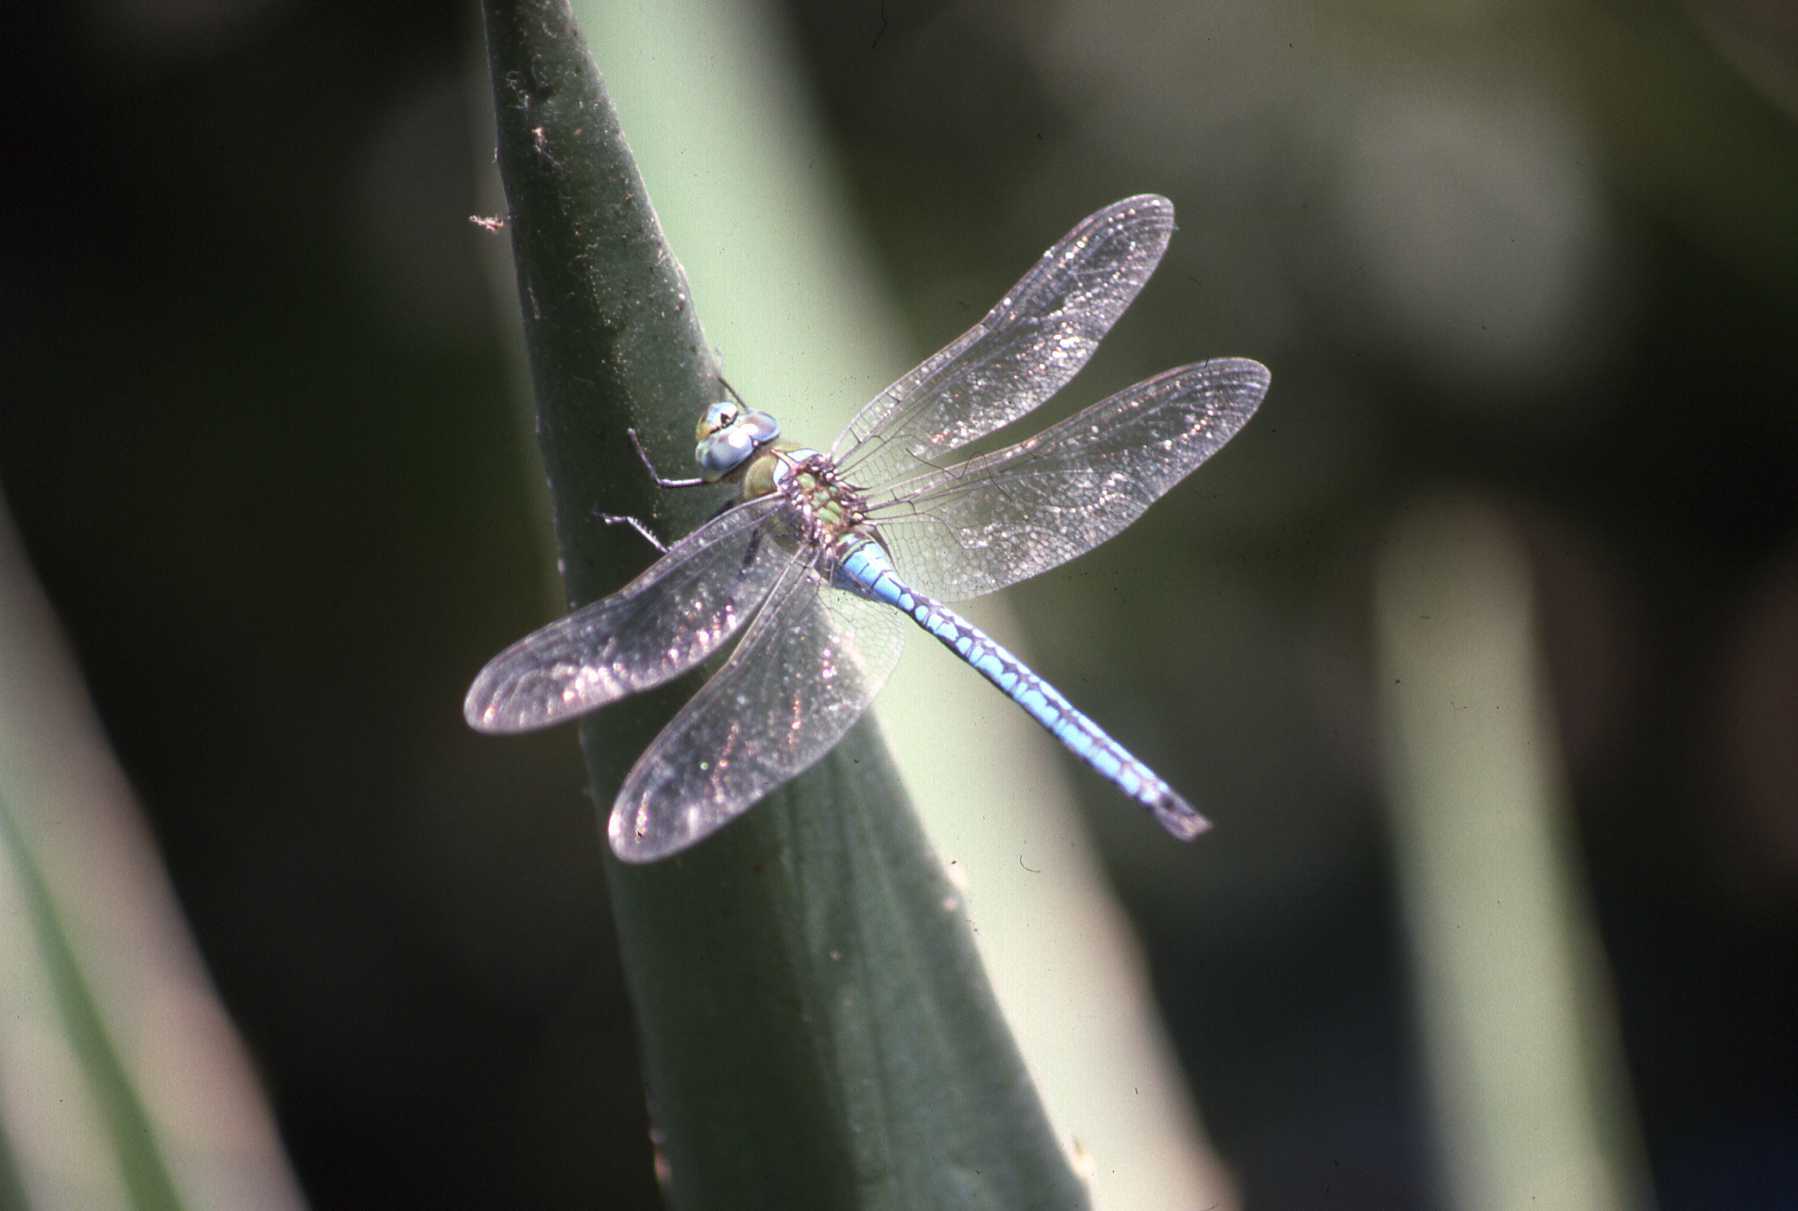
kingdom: Animalia
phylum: Arthropoda
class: Insecta
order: Odonata
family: Aeshnidae
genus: Anax
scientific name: Anax imperator
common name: Emperor dragonfly
